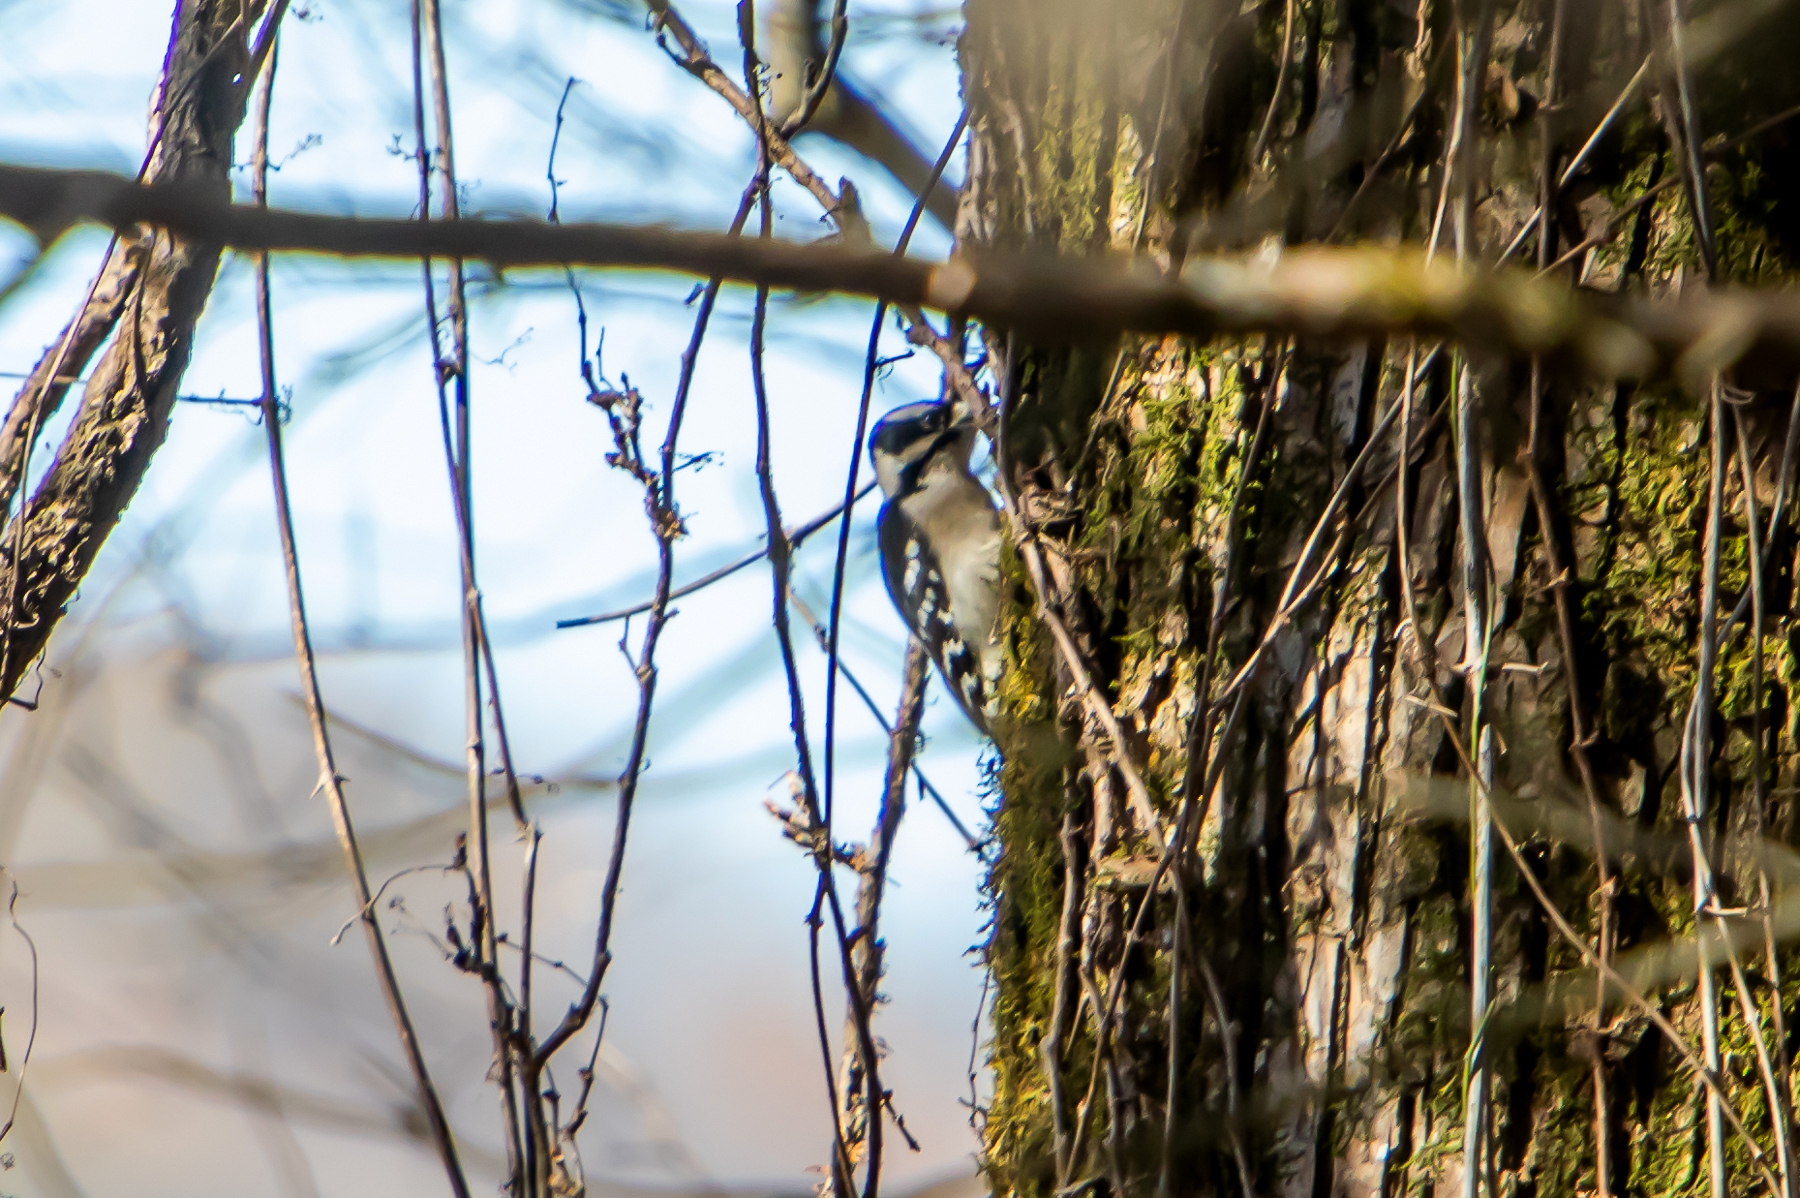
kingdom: Animalia
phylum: Chordata
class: Aves
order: Piciformes
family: Picidae
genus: Dryobates
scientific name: Dryobates pubescens
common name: Downy woodpecker
